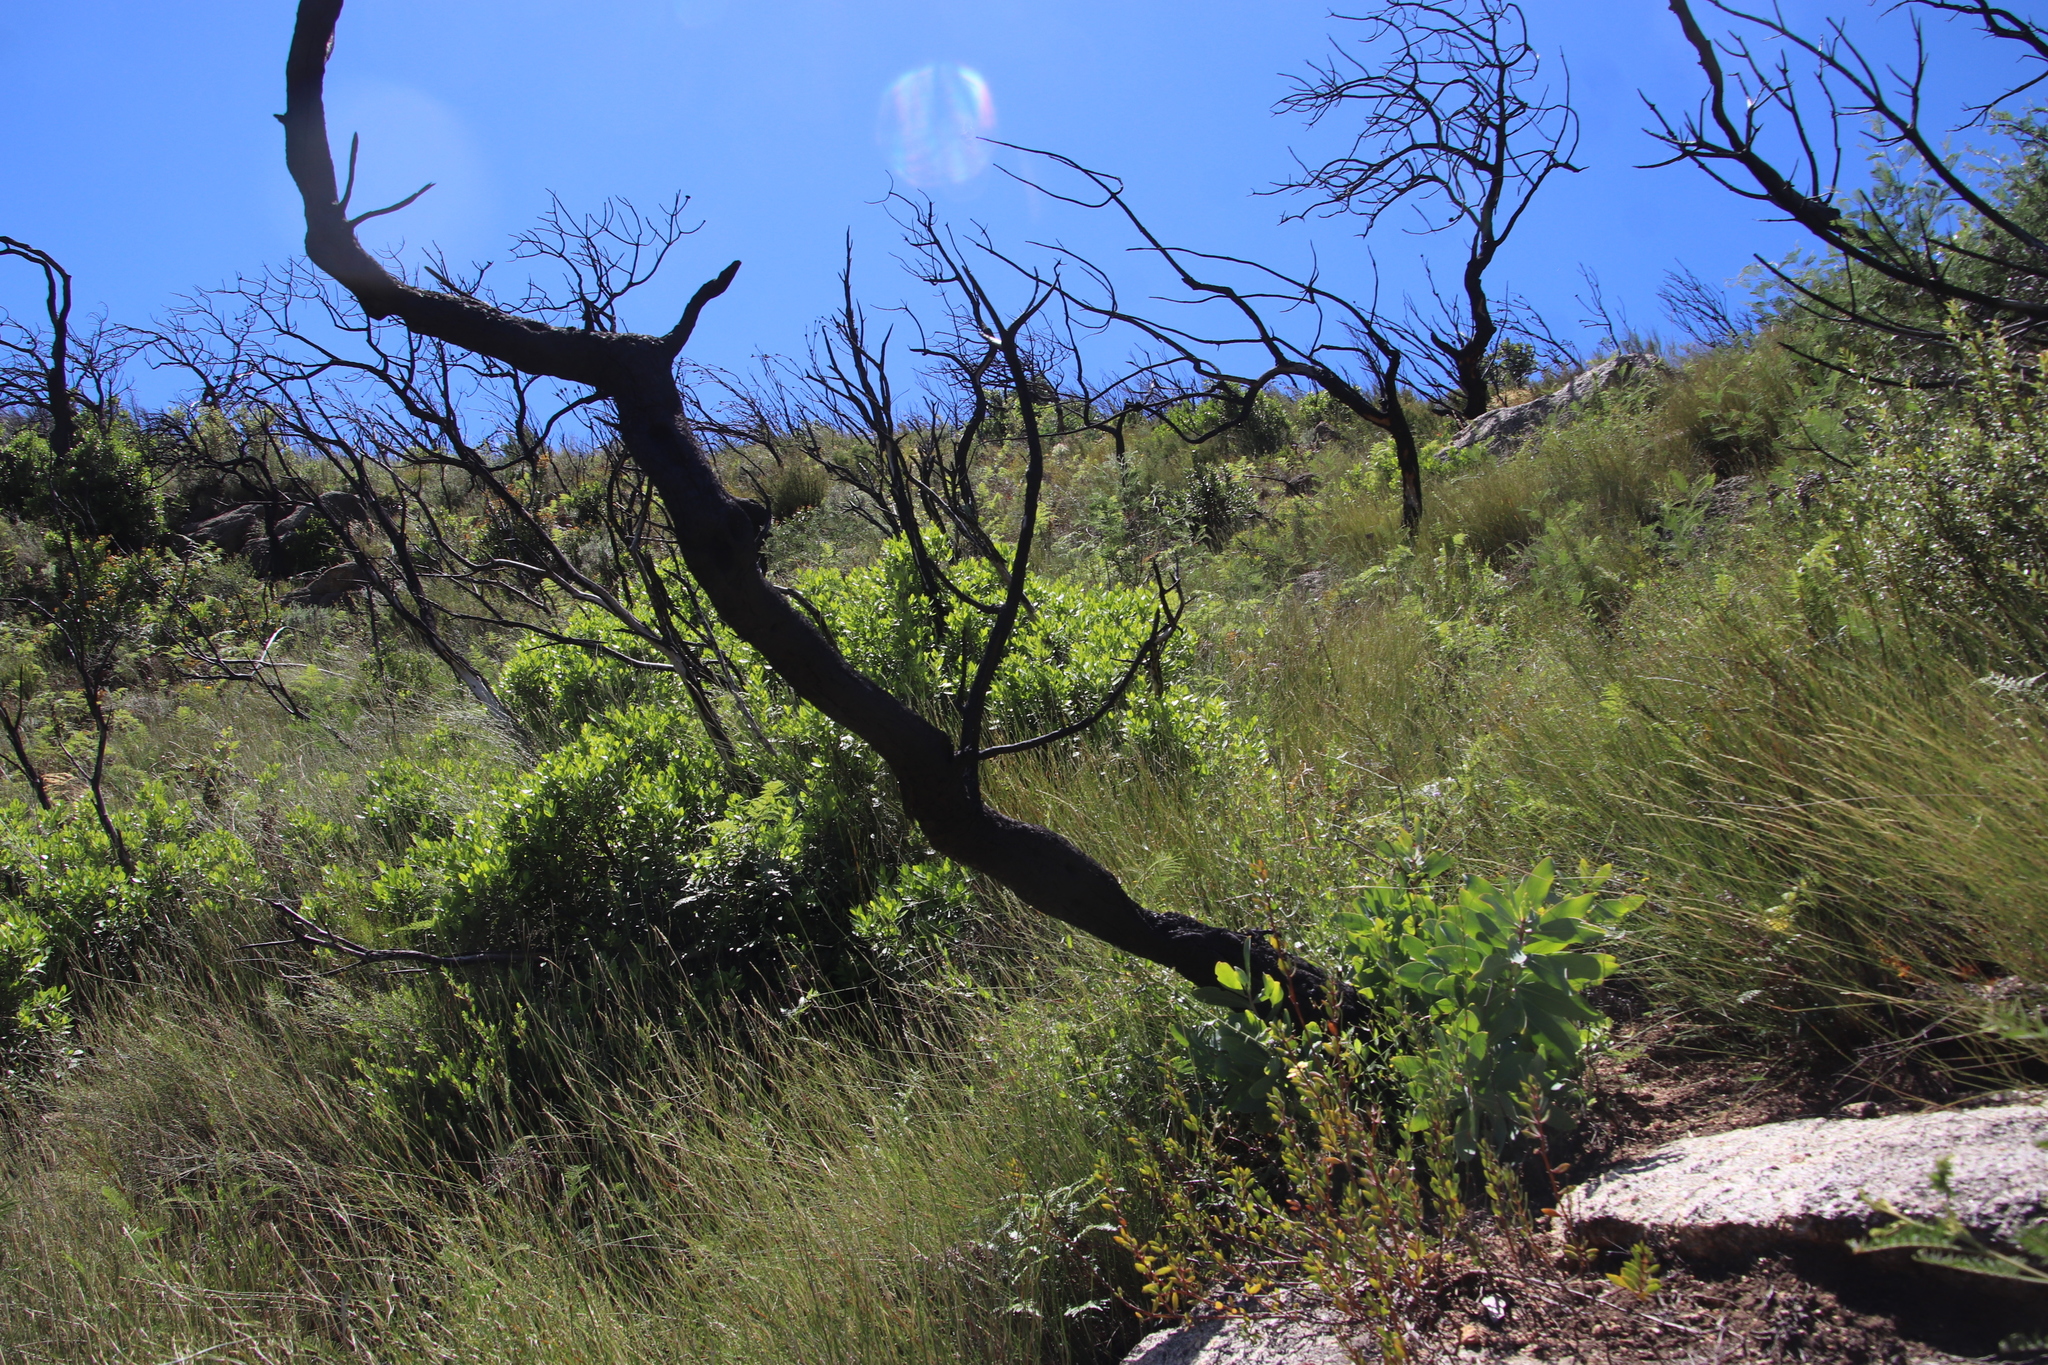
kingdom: Plantae
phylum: Tracheophyta
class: Magnoliopsida
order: Proteales
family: Proteaceae
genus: Protea
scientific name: Protea nitida
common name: Tree protea
